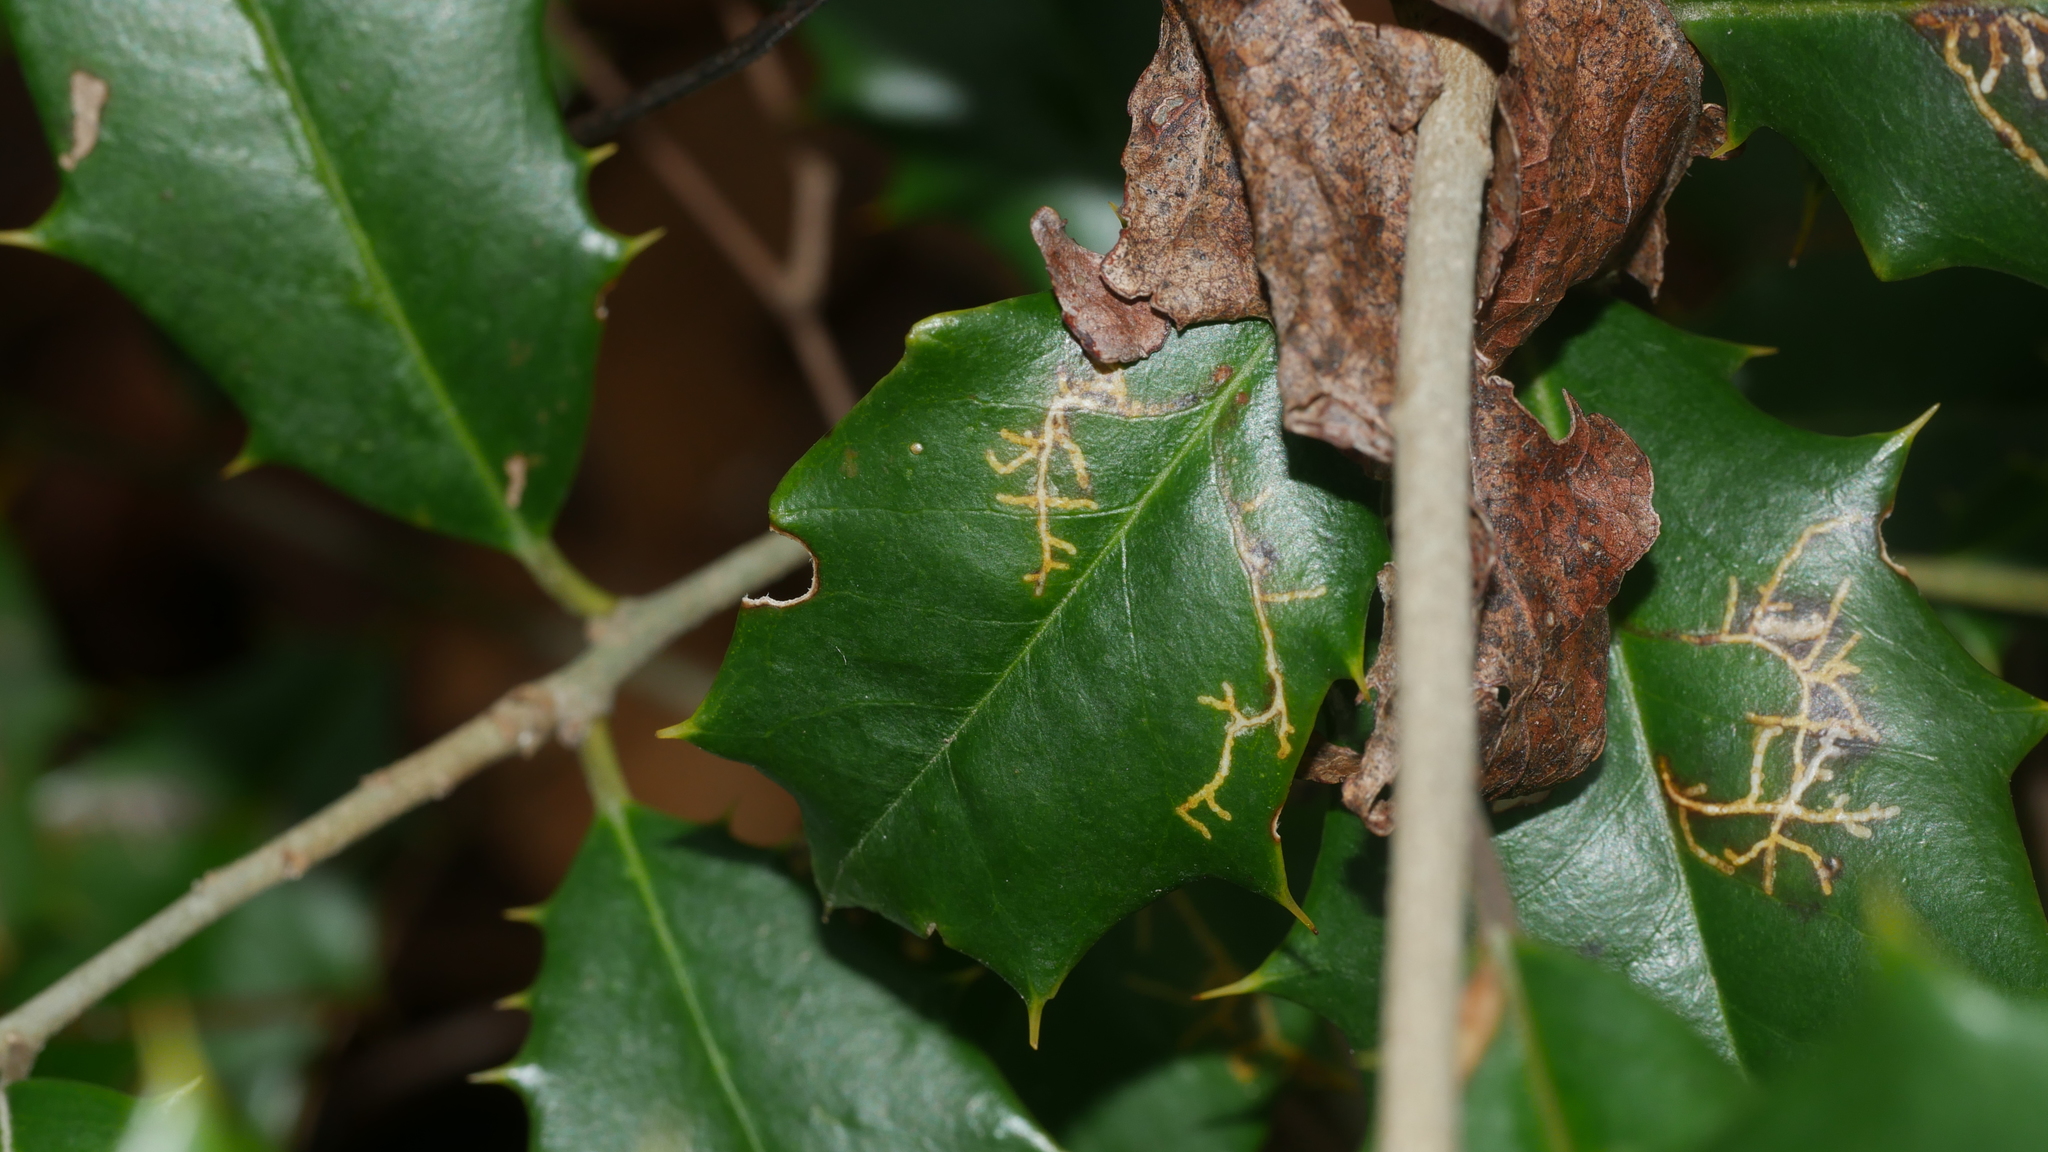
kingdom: Animalia
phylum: Arthropoda
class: Insecta
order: Lepidoptera
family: Tortricidae
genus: Rhopobota
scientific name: Rhopobota
